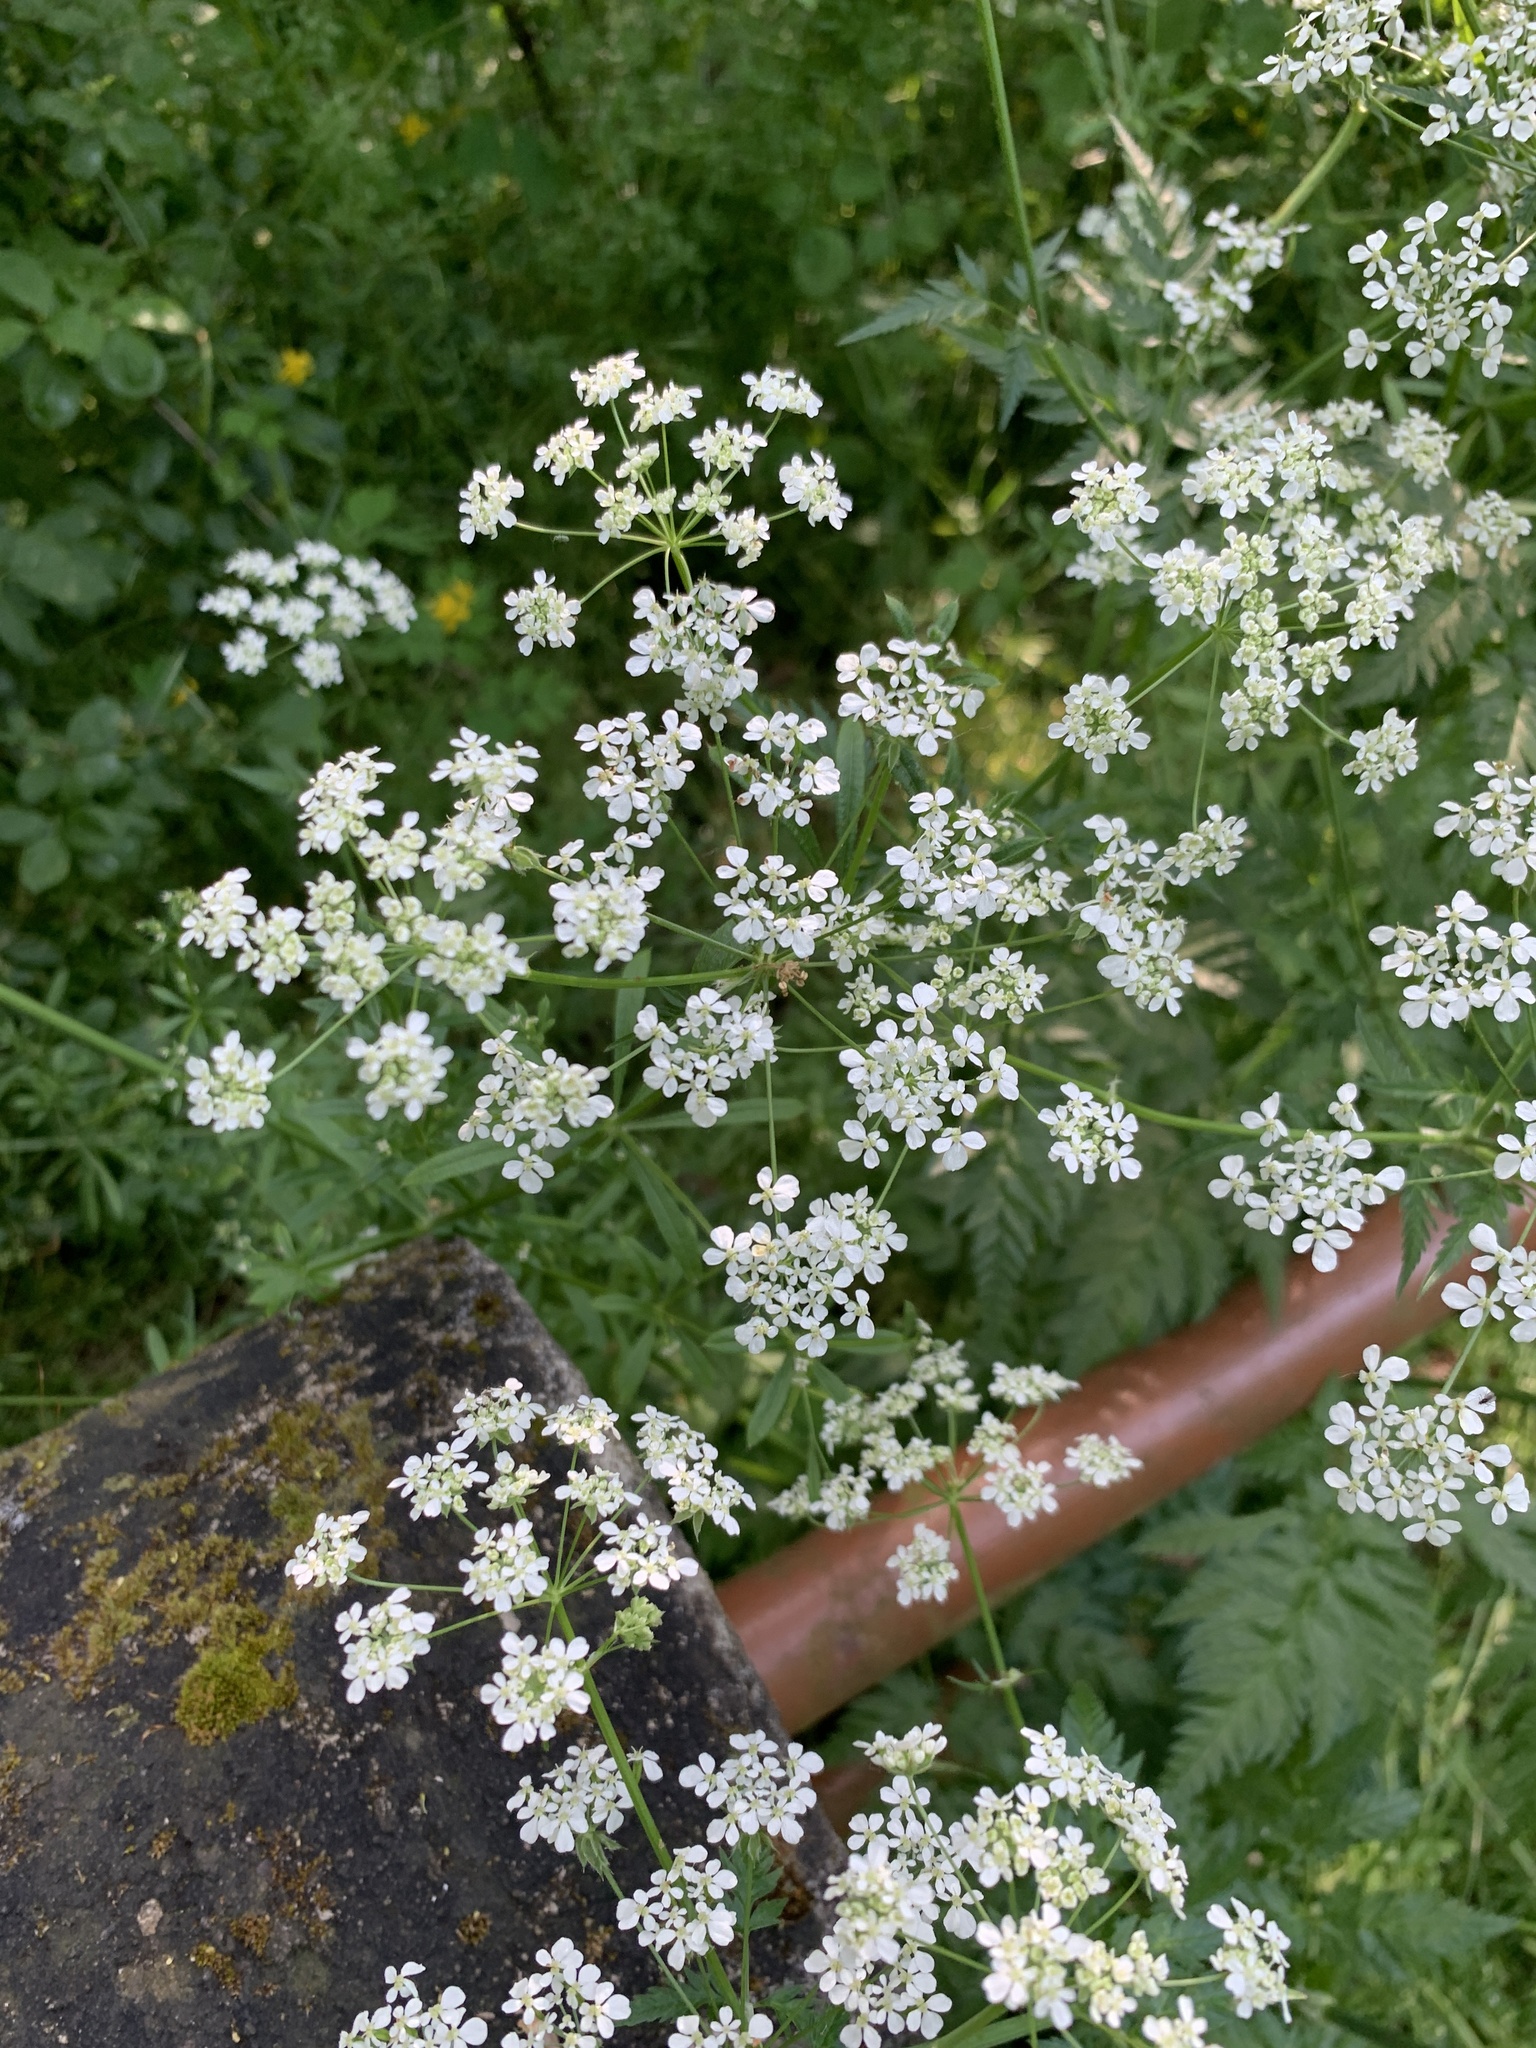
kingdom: Plantae
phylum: Tracheophyta
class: Magnoliopsida
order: Apiales
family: Apiaceae
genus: Anthriscus
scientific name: Anthriscus sylvestris
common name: Cow parsley
